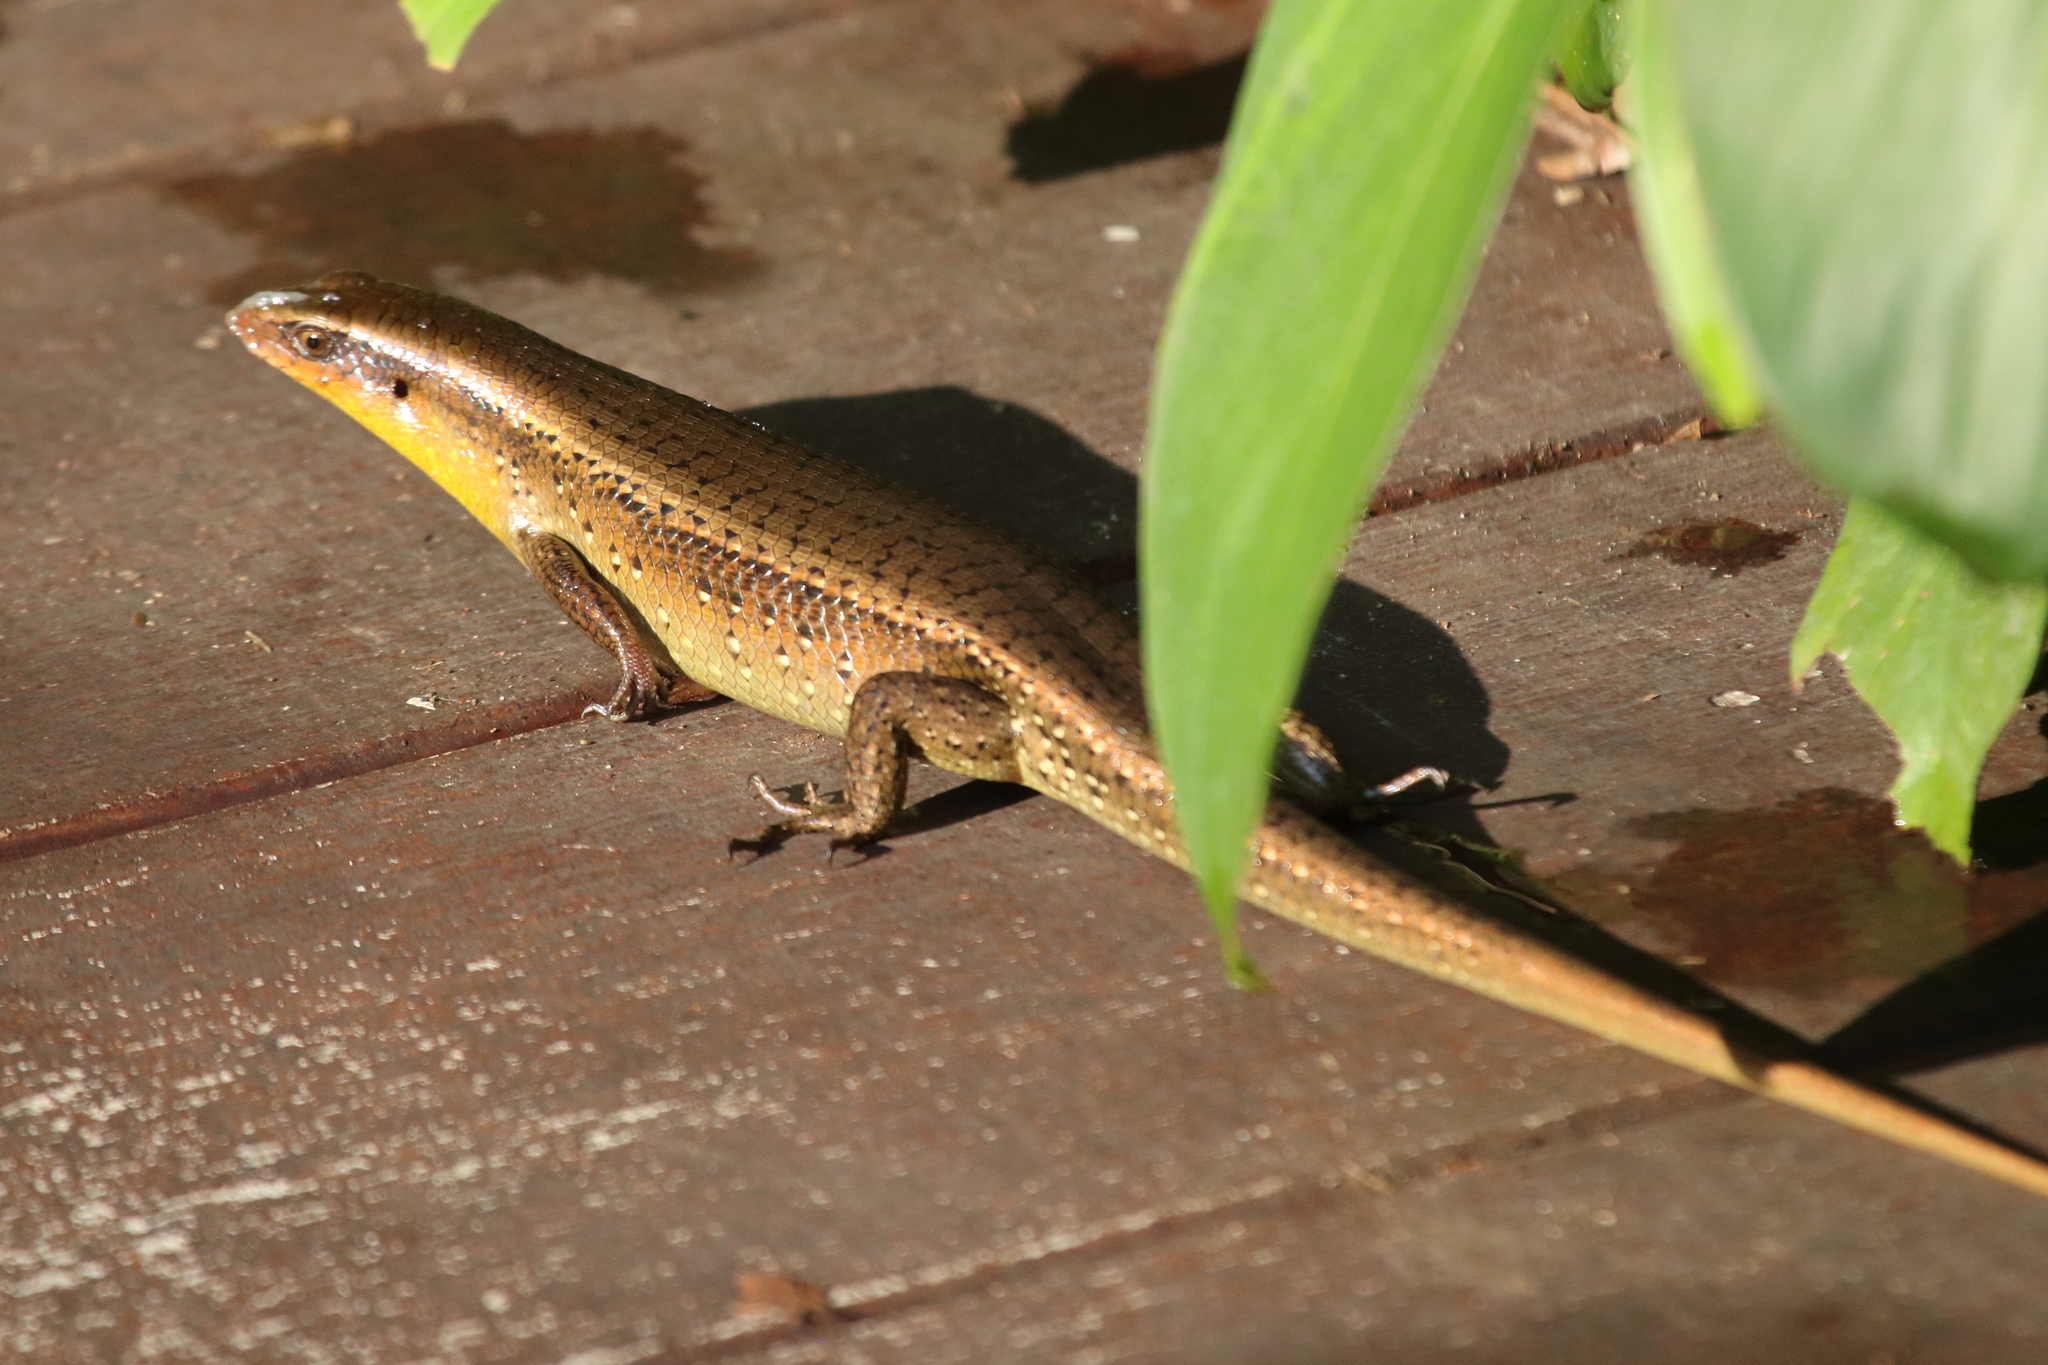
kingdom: Animalia
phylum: Chordata
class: Squamata
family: Scincidae
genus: Eutropis
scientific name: Eutropis multifasciata
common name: Common mabuya
